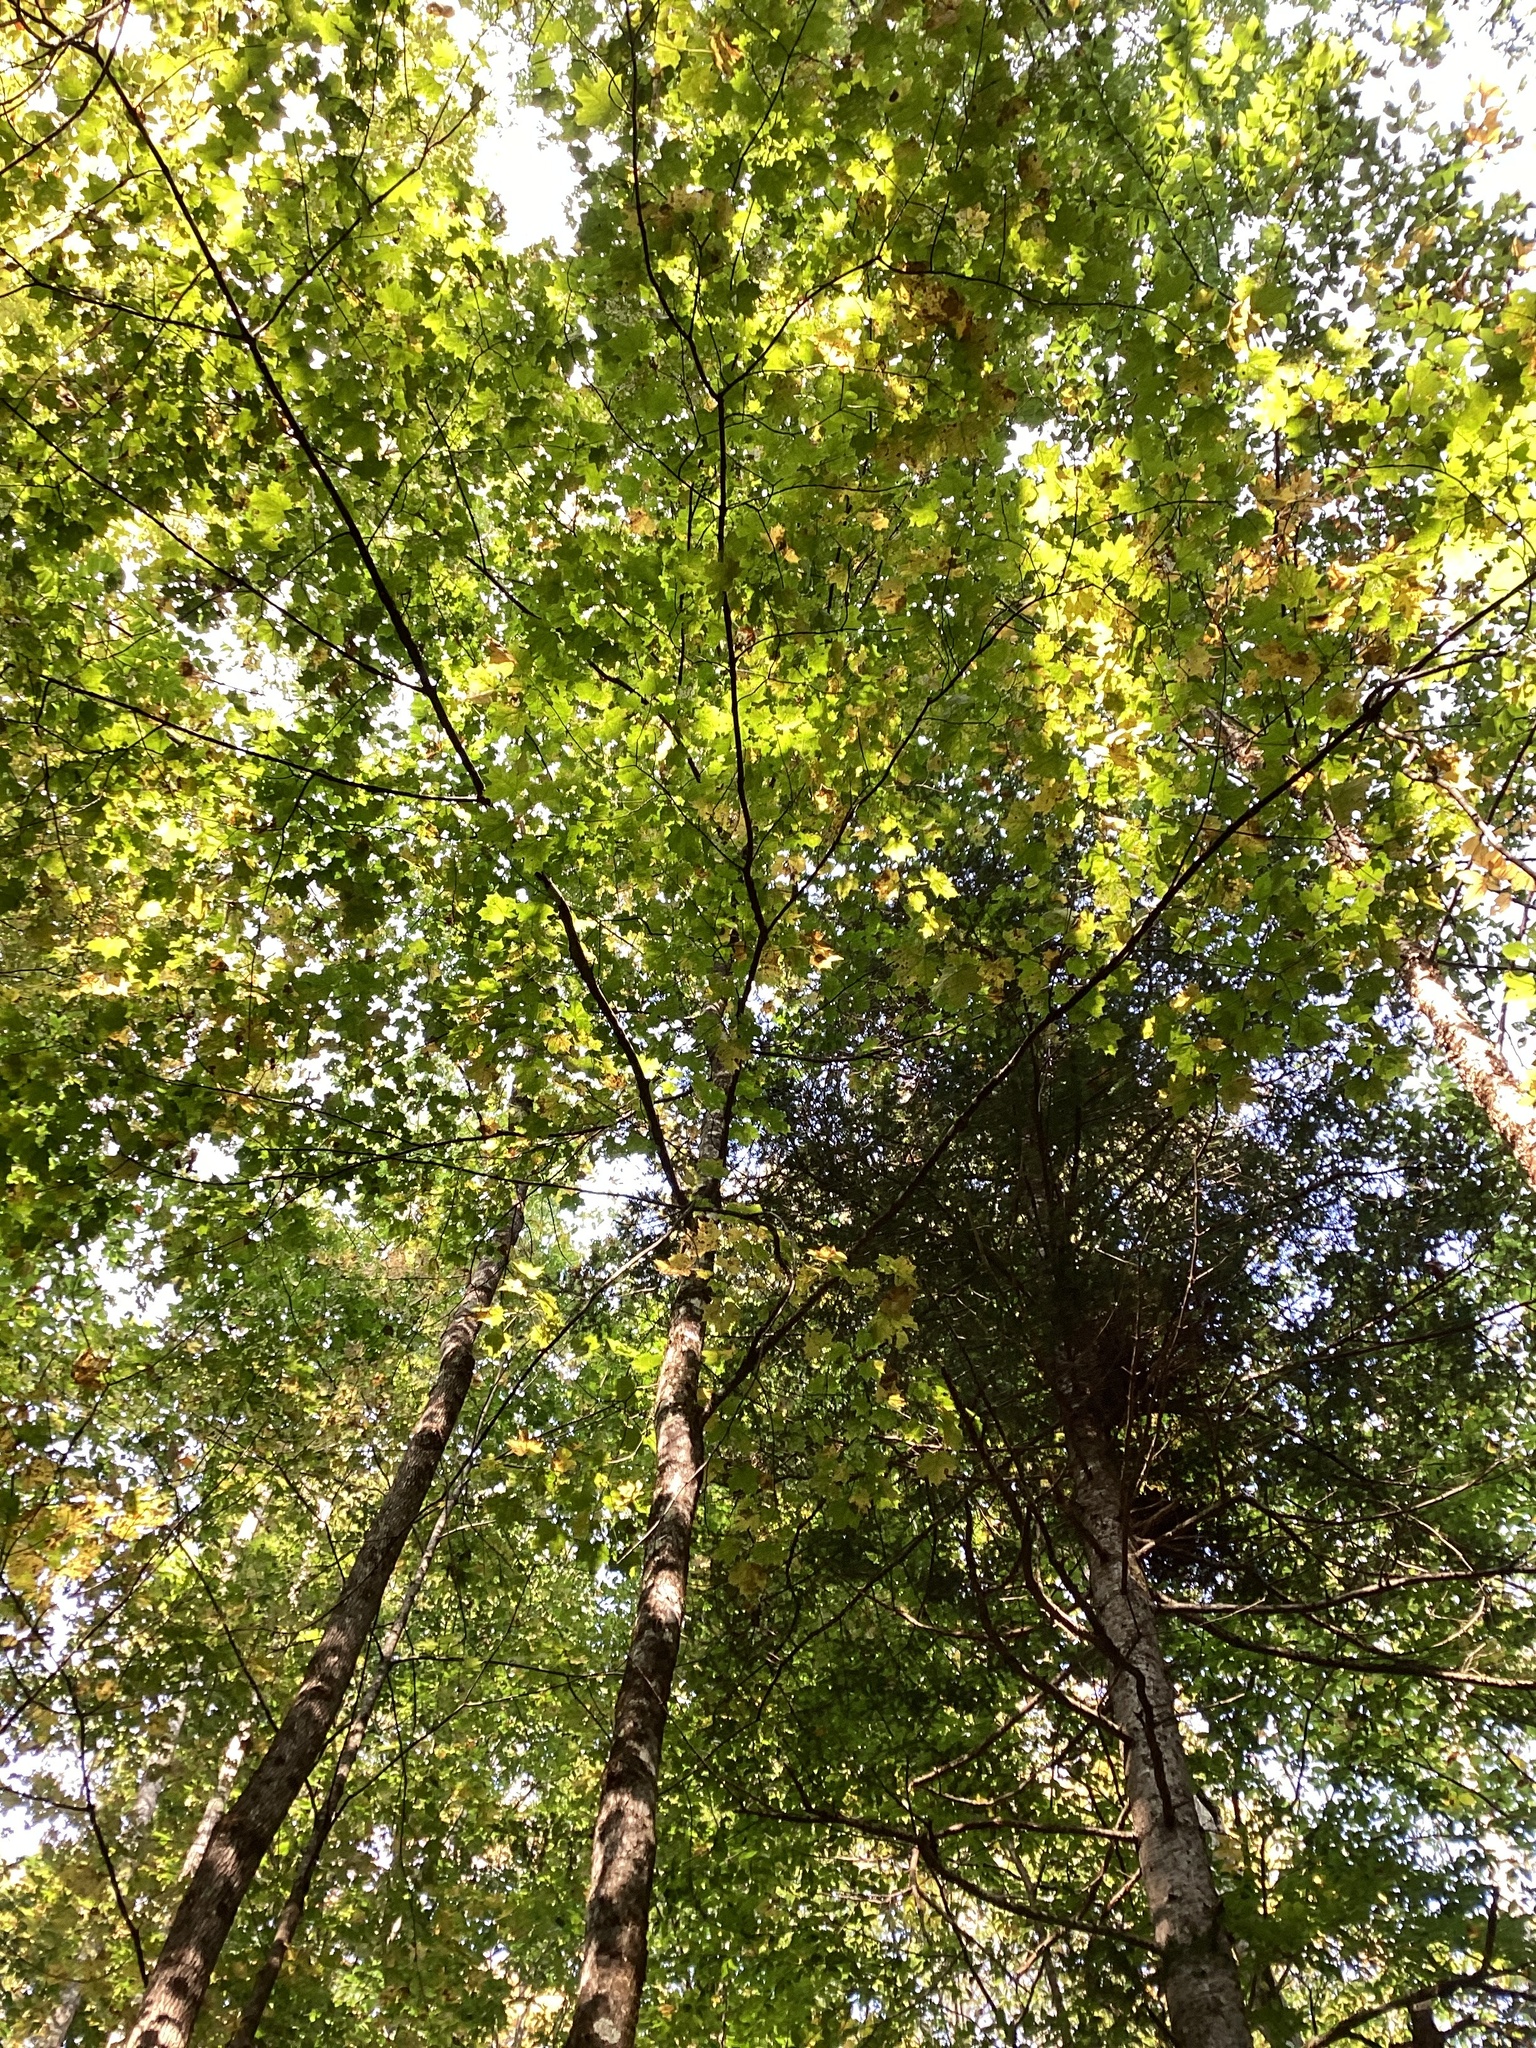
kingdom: Plantae
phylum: Tracheophyta
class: Magnoliopsida
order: Sapindales
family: Sapindaceae
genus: Acer
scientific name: Acer saccharum
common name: Sugar maple
